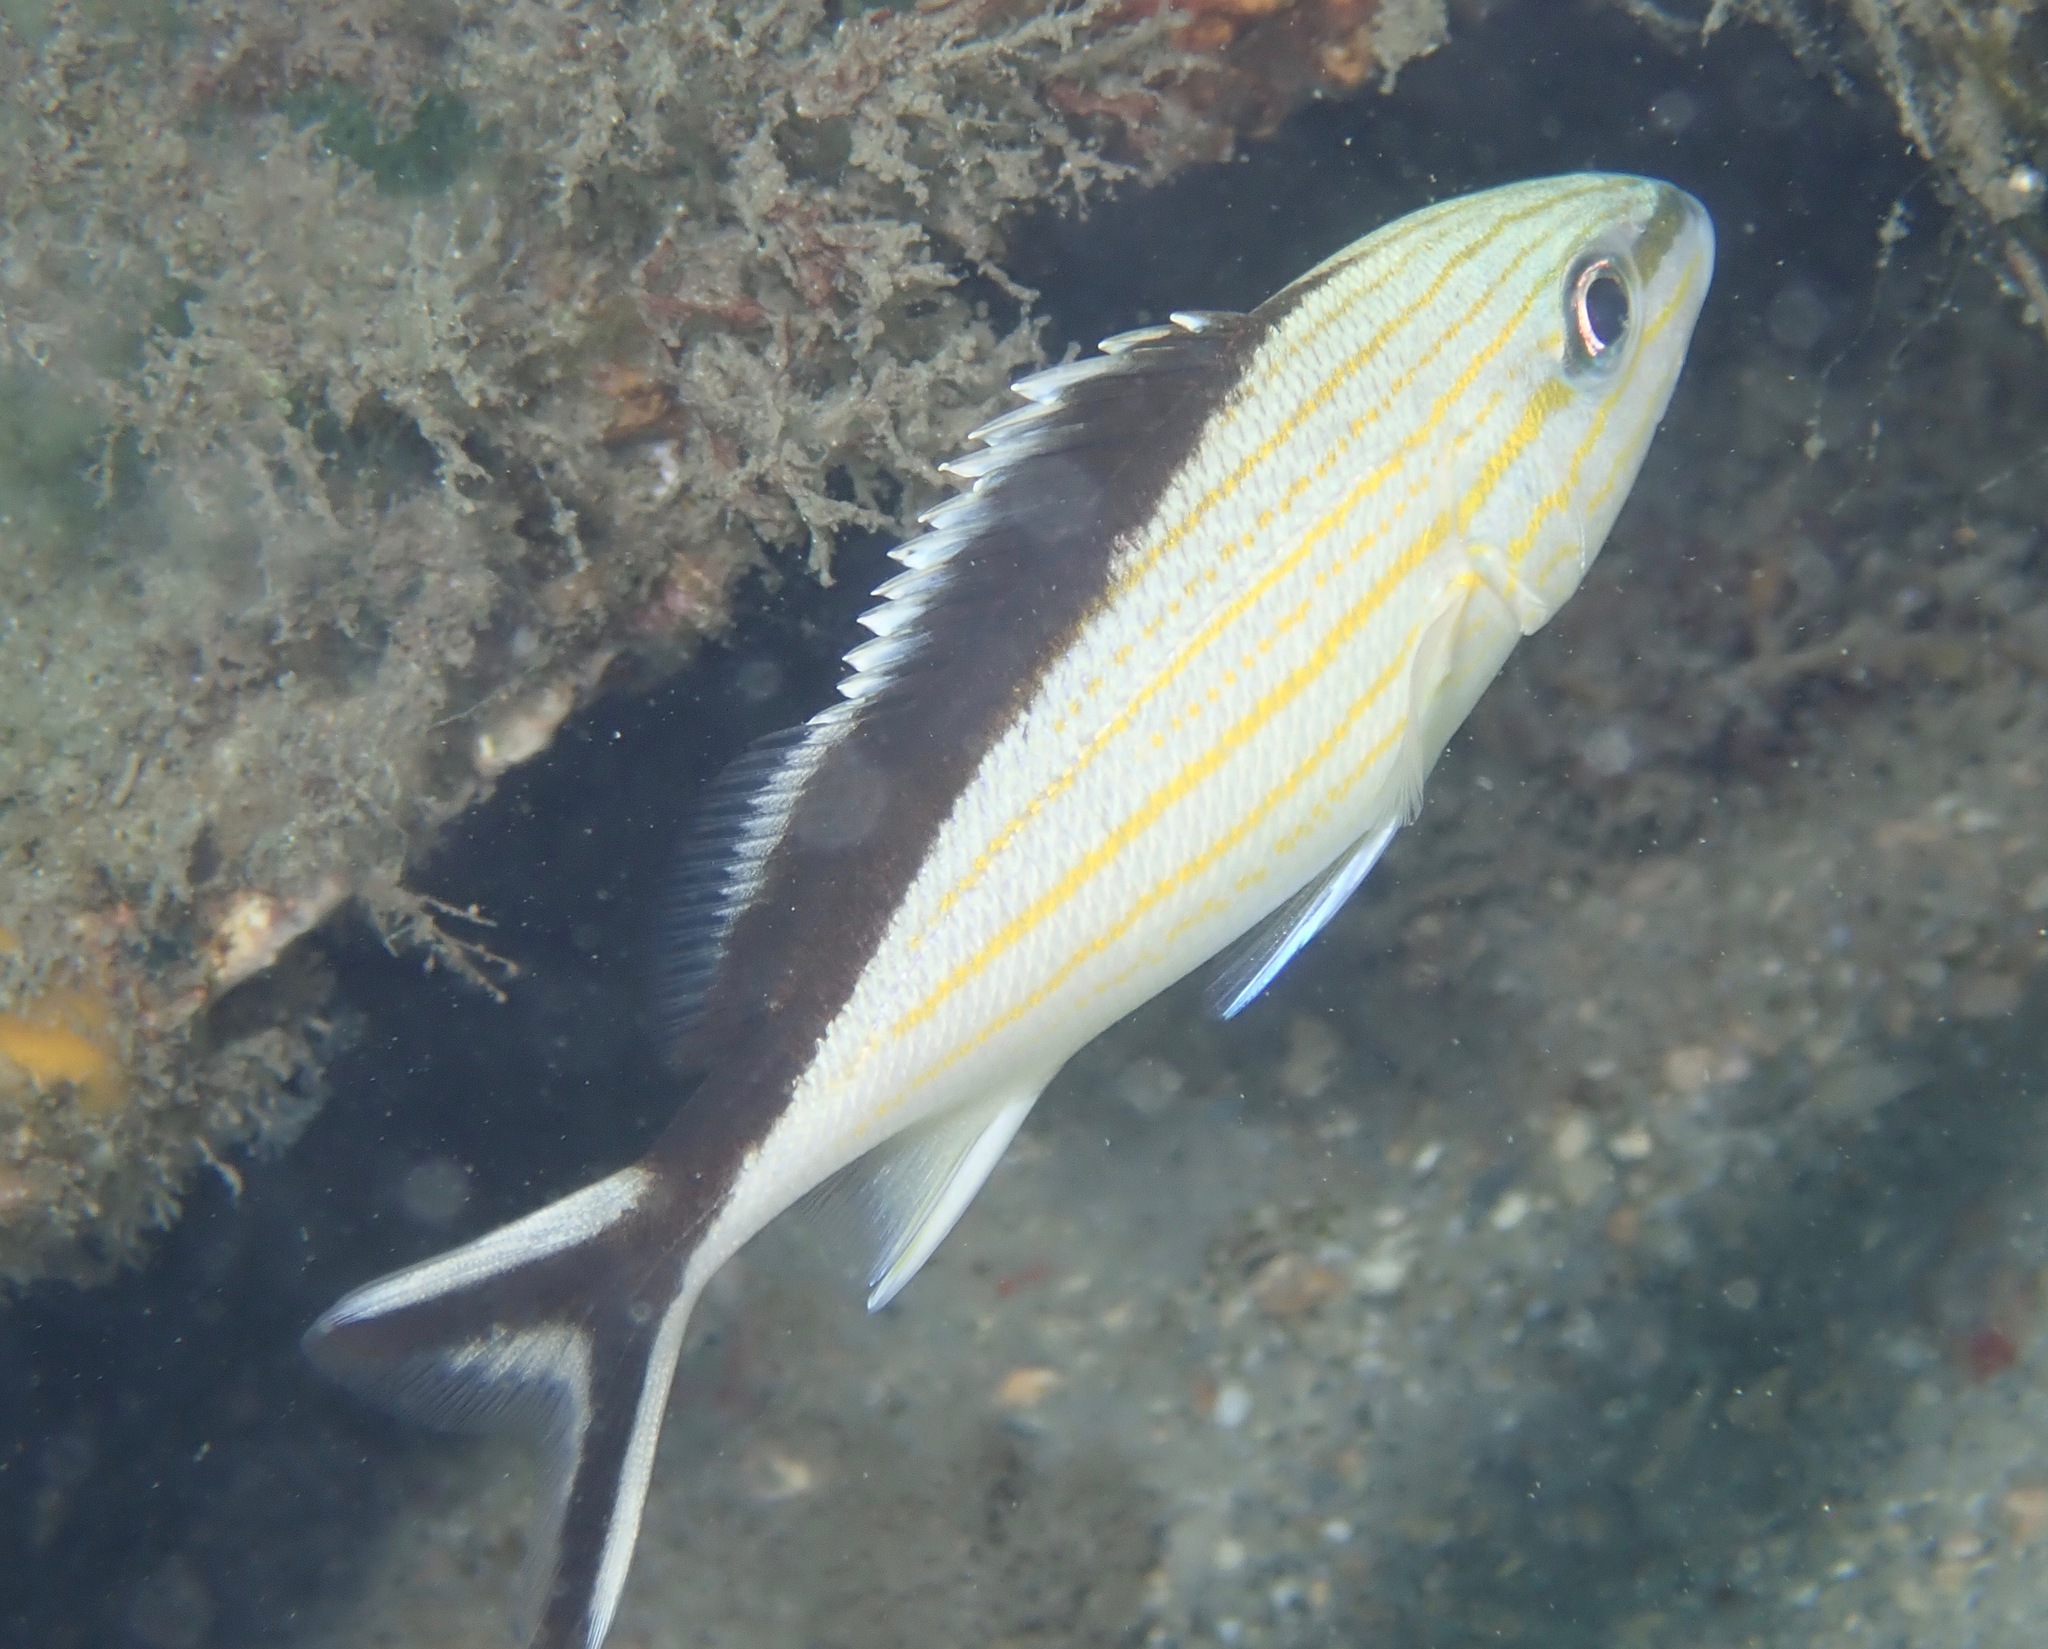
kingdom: Animalia
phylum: Chordata
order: Perciformes
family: Haemulidae
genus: Haemulon
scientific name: Haemulon melanurum
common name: Cottonwick
